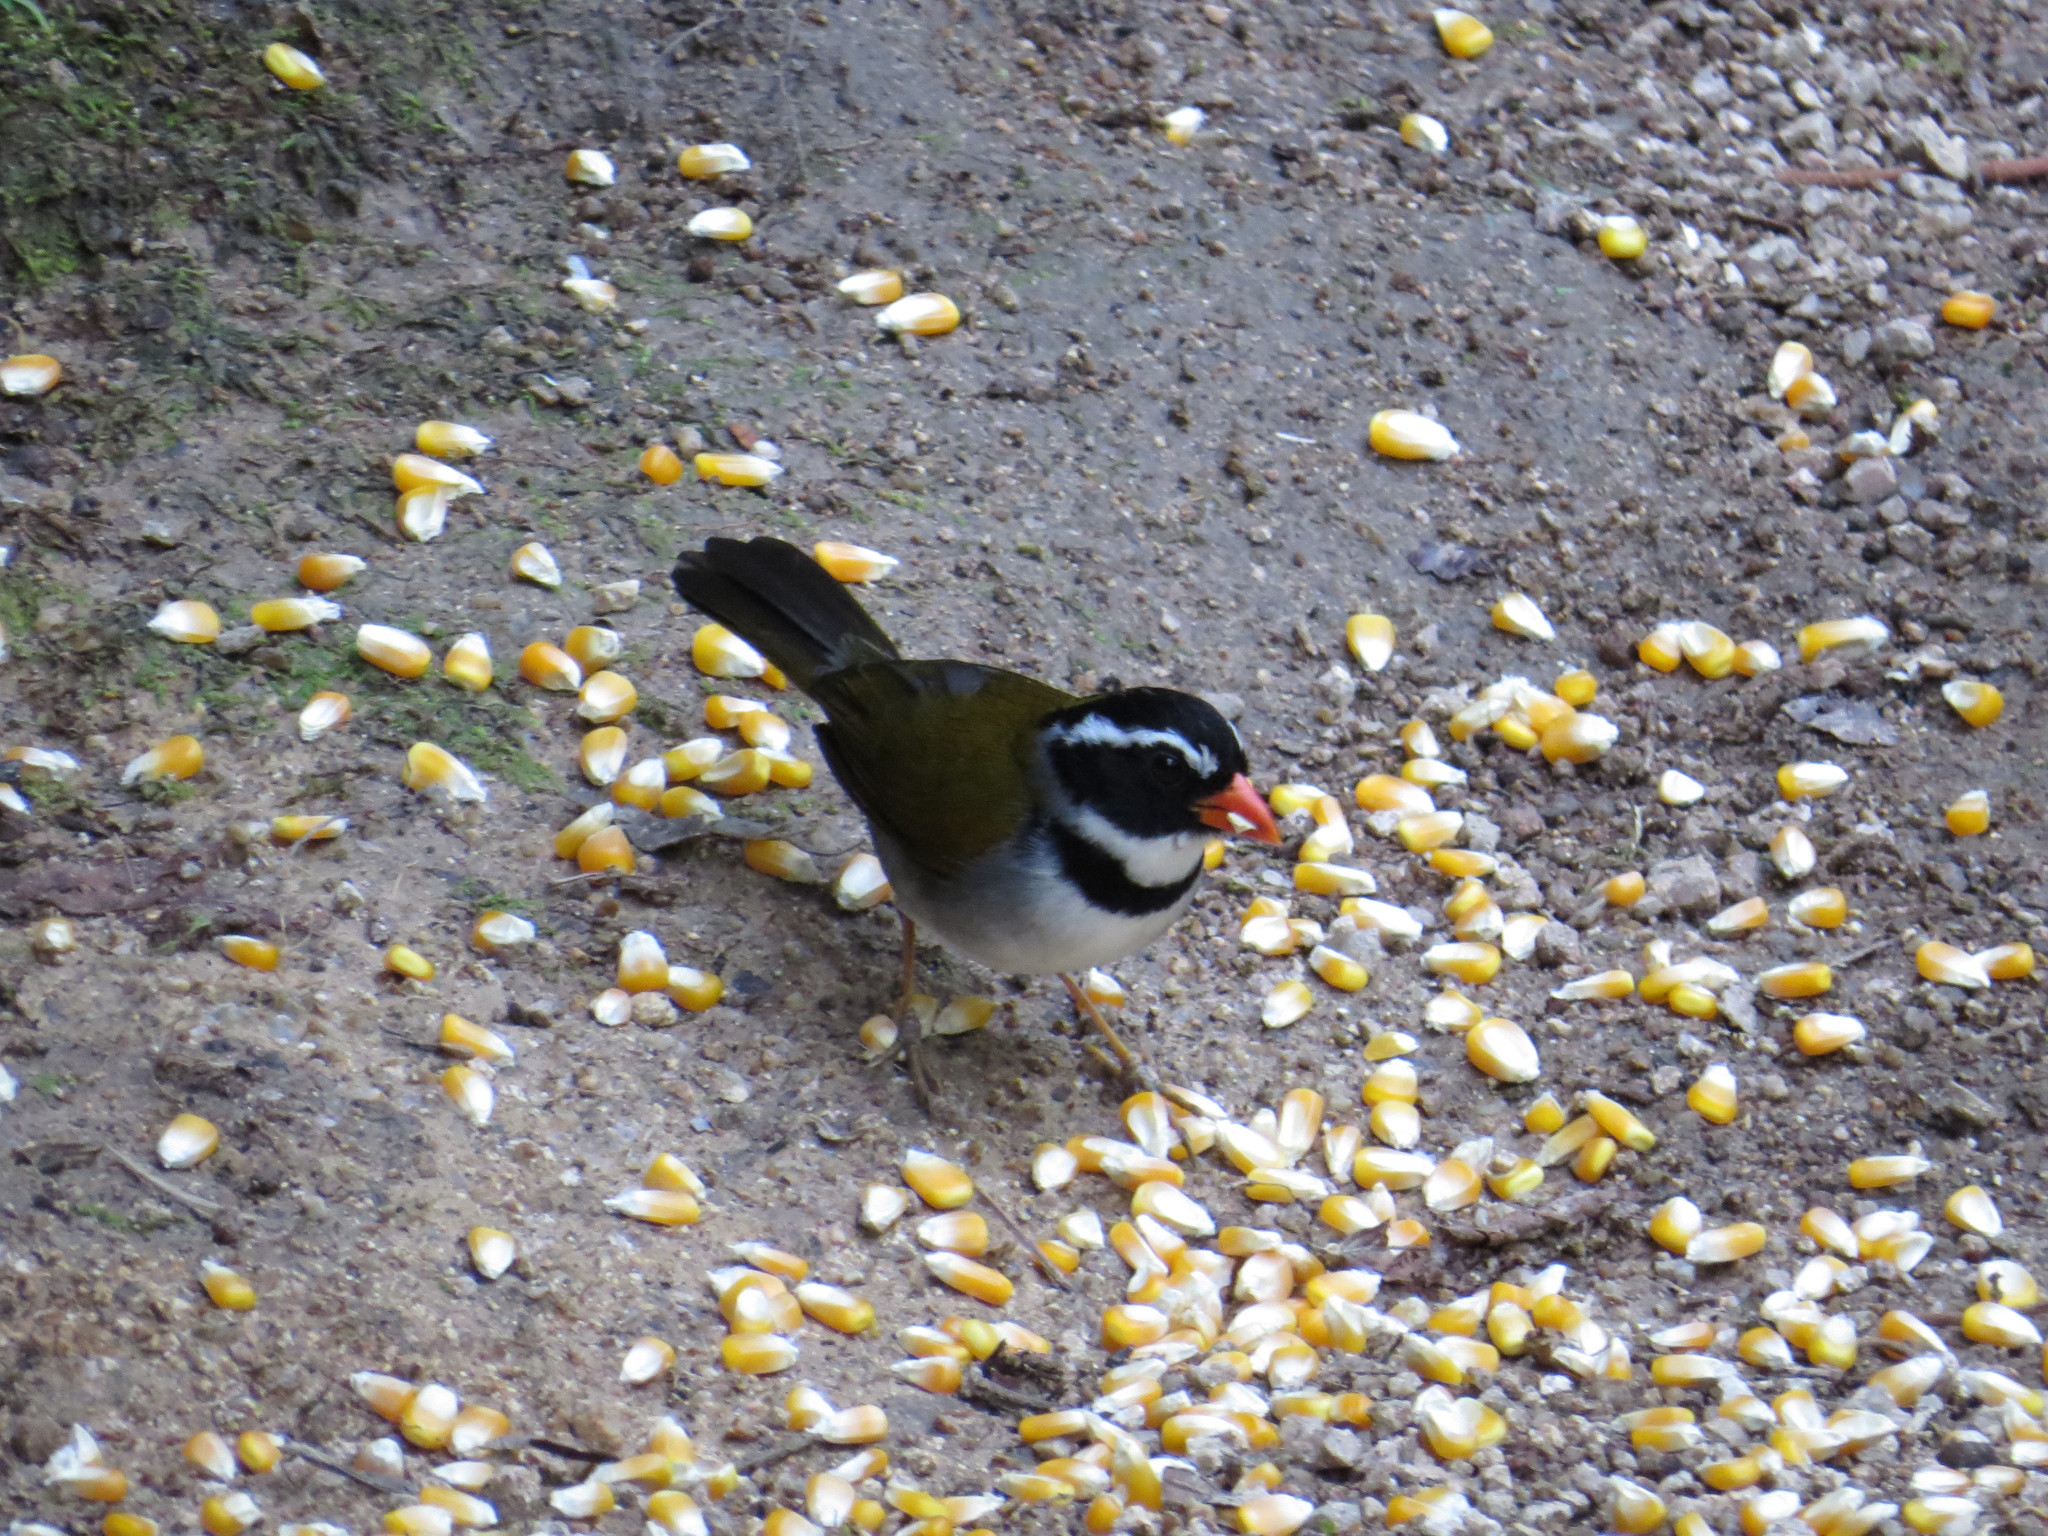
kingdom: Animalia
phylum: Chordata
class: Aves
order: Passeriformes
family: Passerellidae
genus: Arremon
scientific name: Arremon aurantiirostris
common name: Orange-billed sparrow
